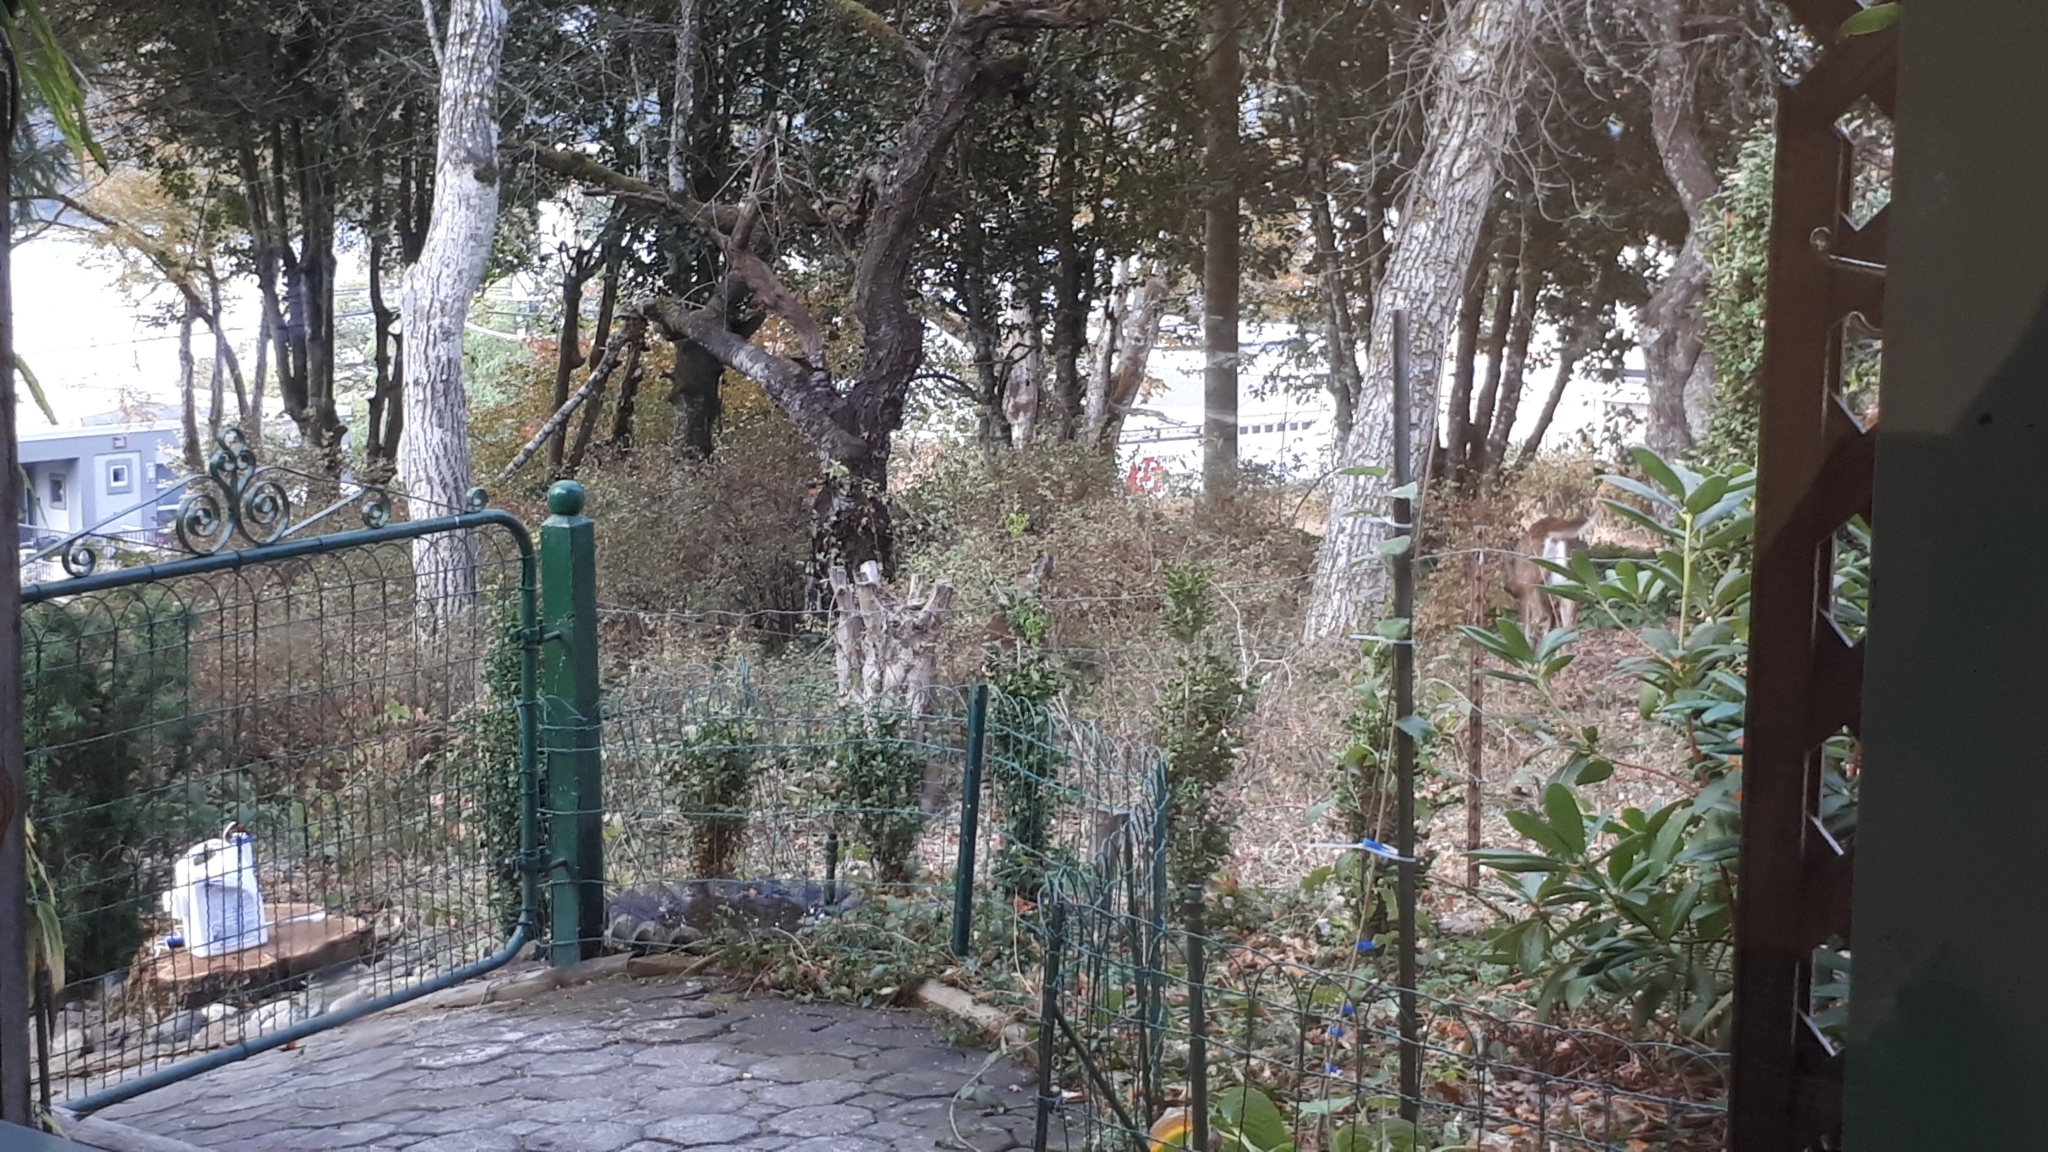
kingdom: Animalia
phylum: Chordata
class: Mammalia
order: Artiodactyla
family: Cervidae
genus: Odocoileus
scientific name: Odocoileus hemionus
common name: Mule deer
